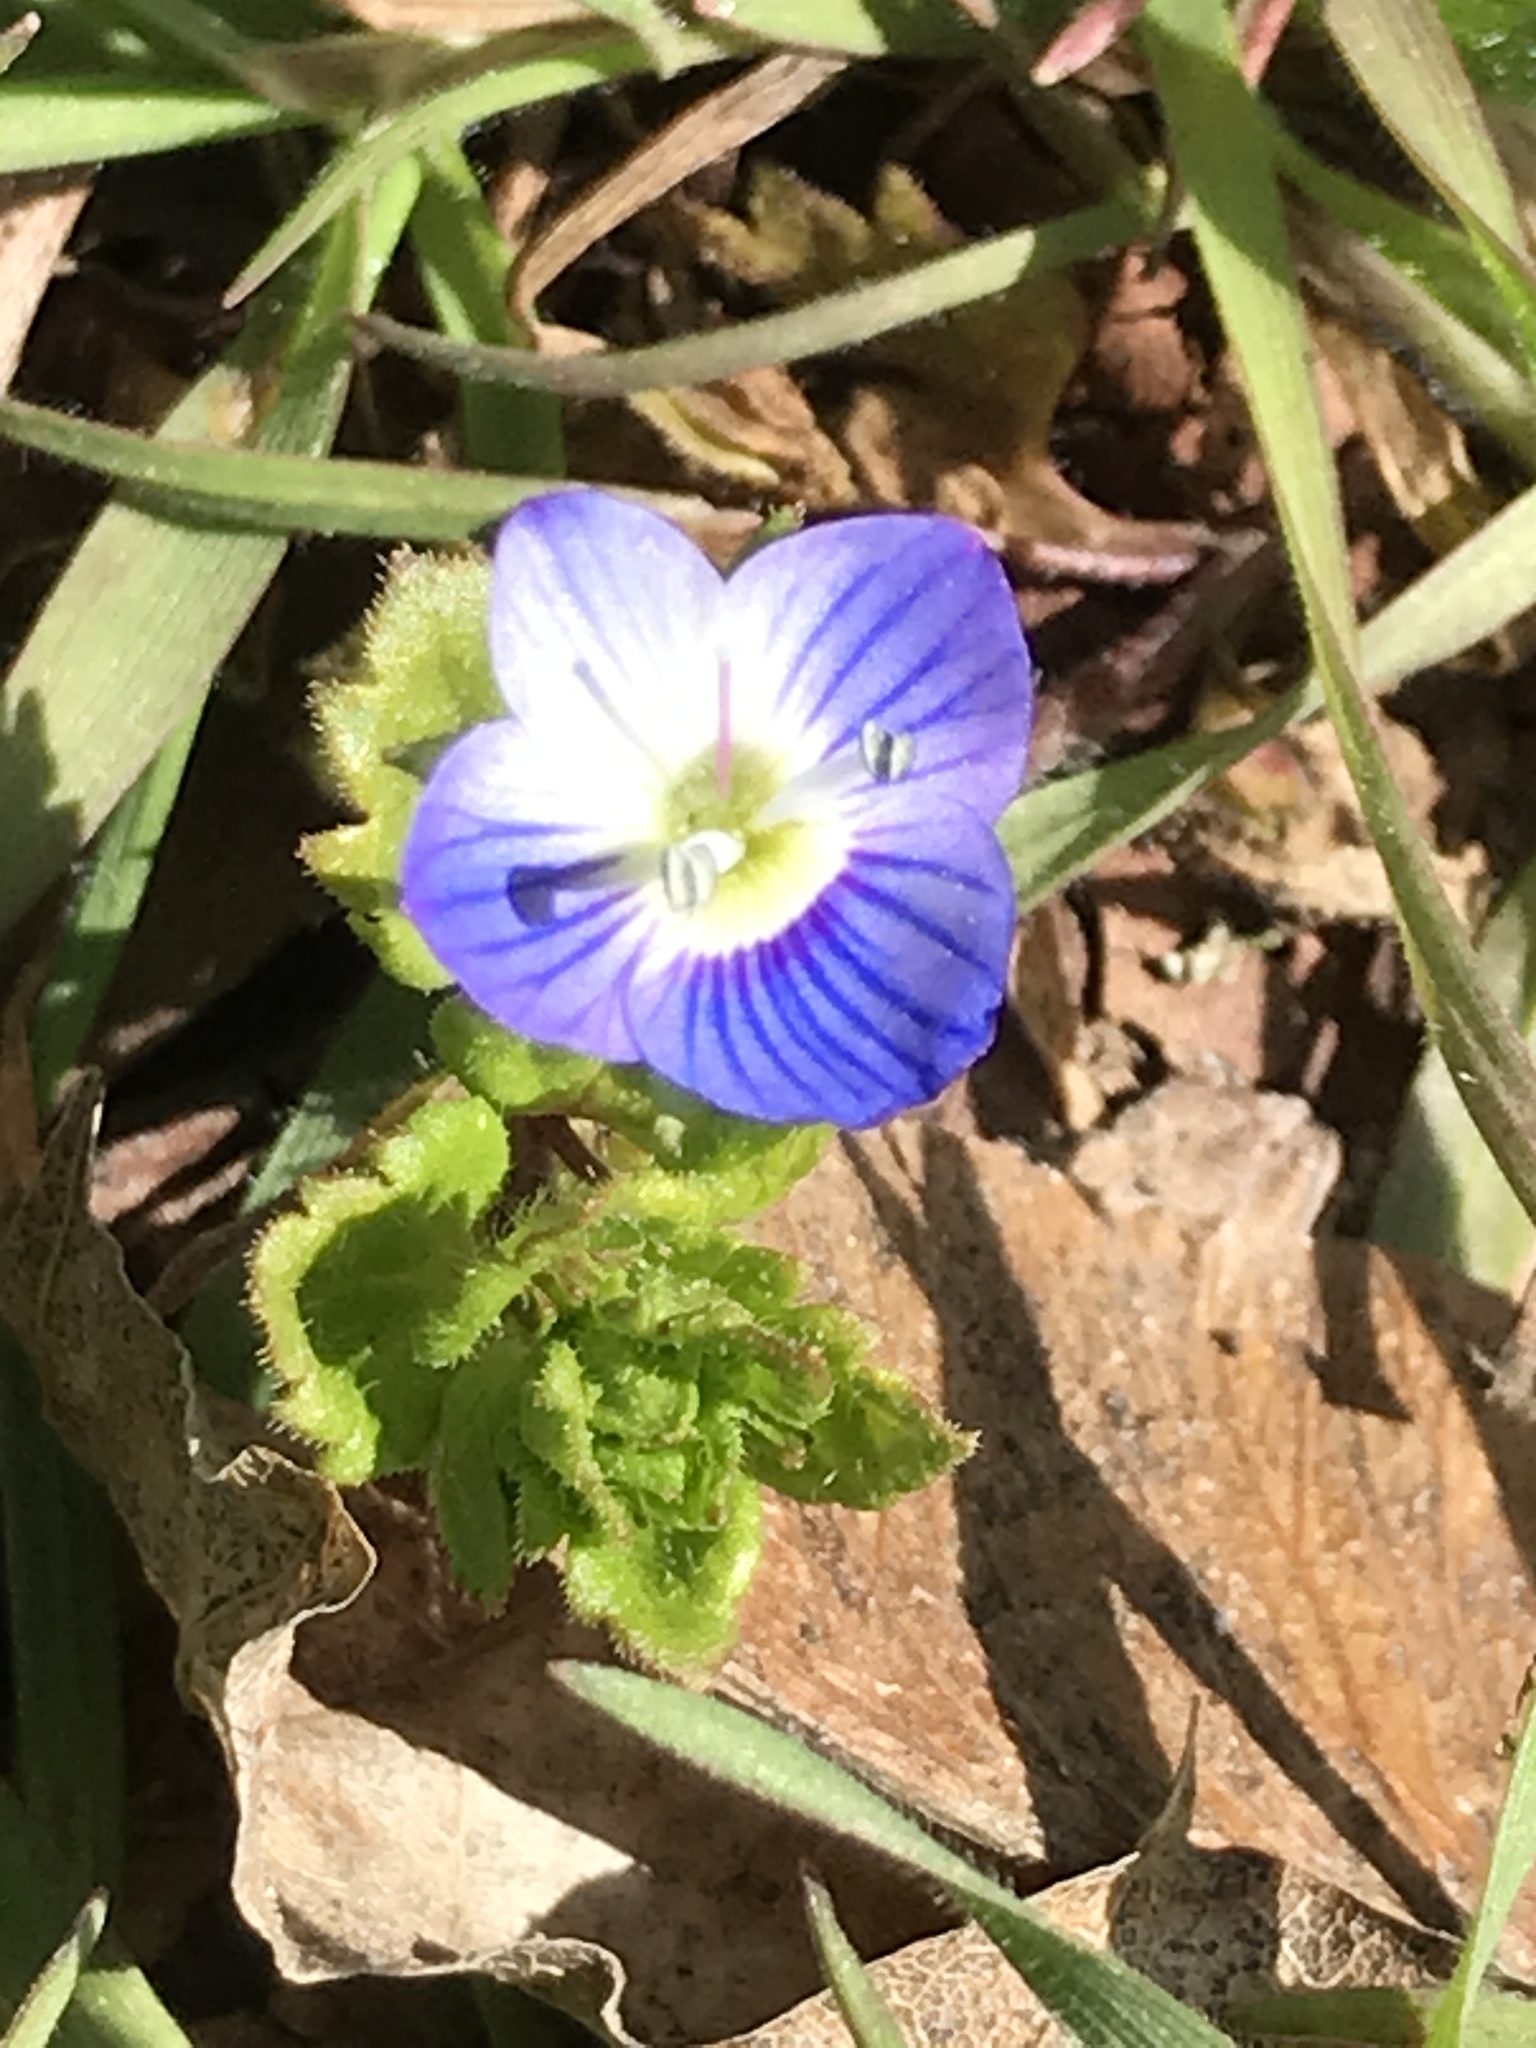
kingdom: Plantae
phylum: Tracheophyta
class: Magnoliopsida
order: Lamiales
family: Plantaginaceae
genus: Veronica
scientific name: Veronica persica
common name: Common field-speedwell
